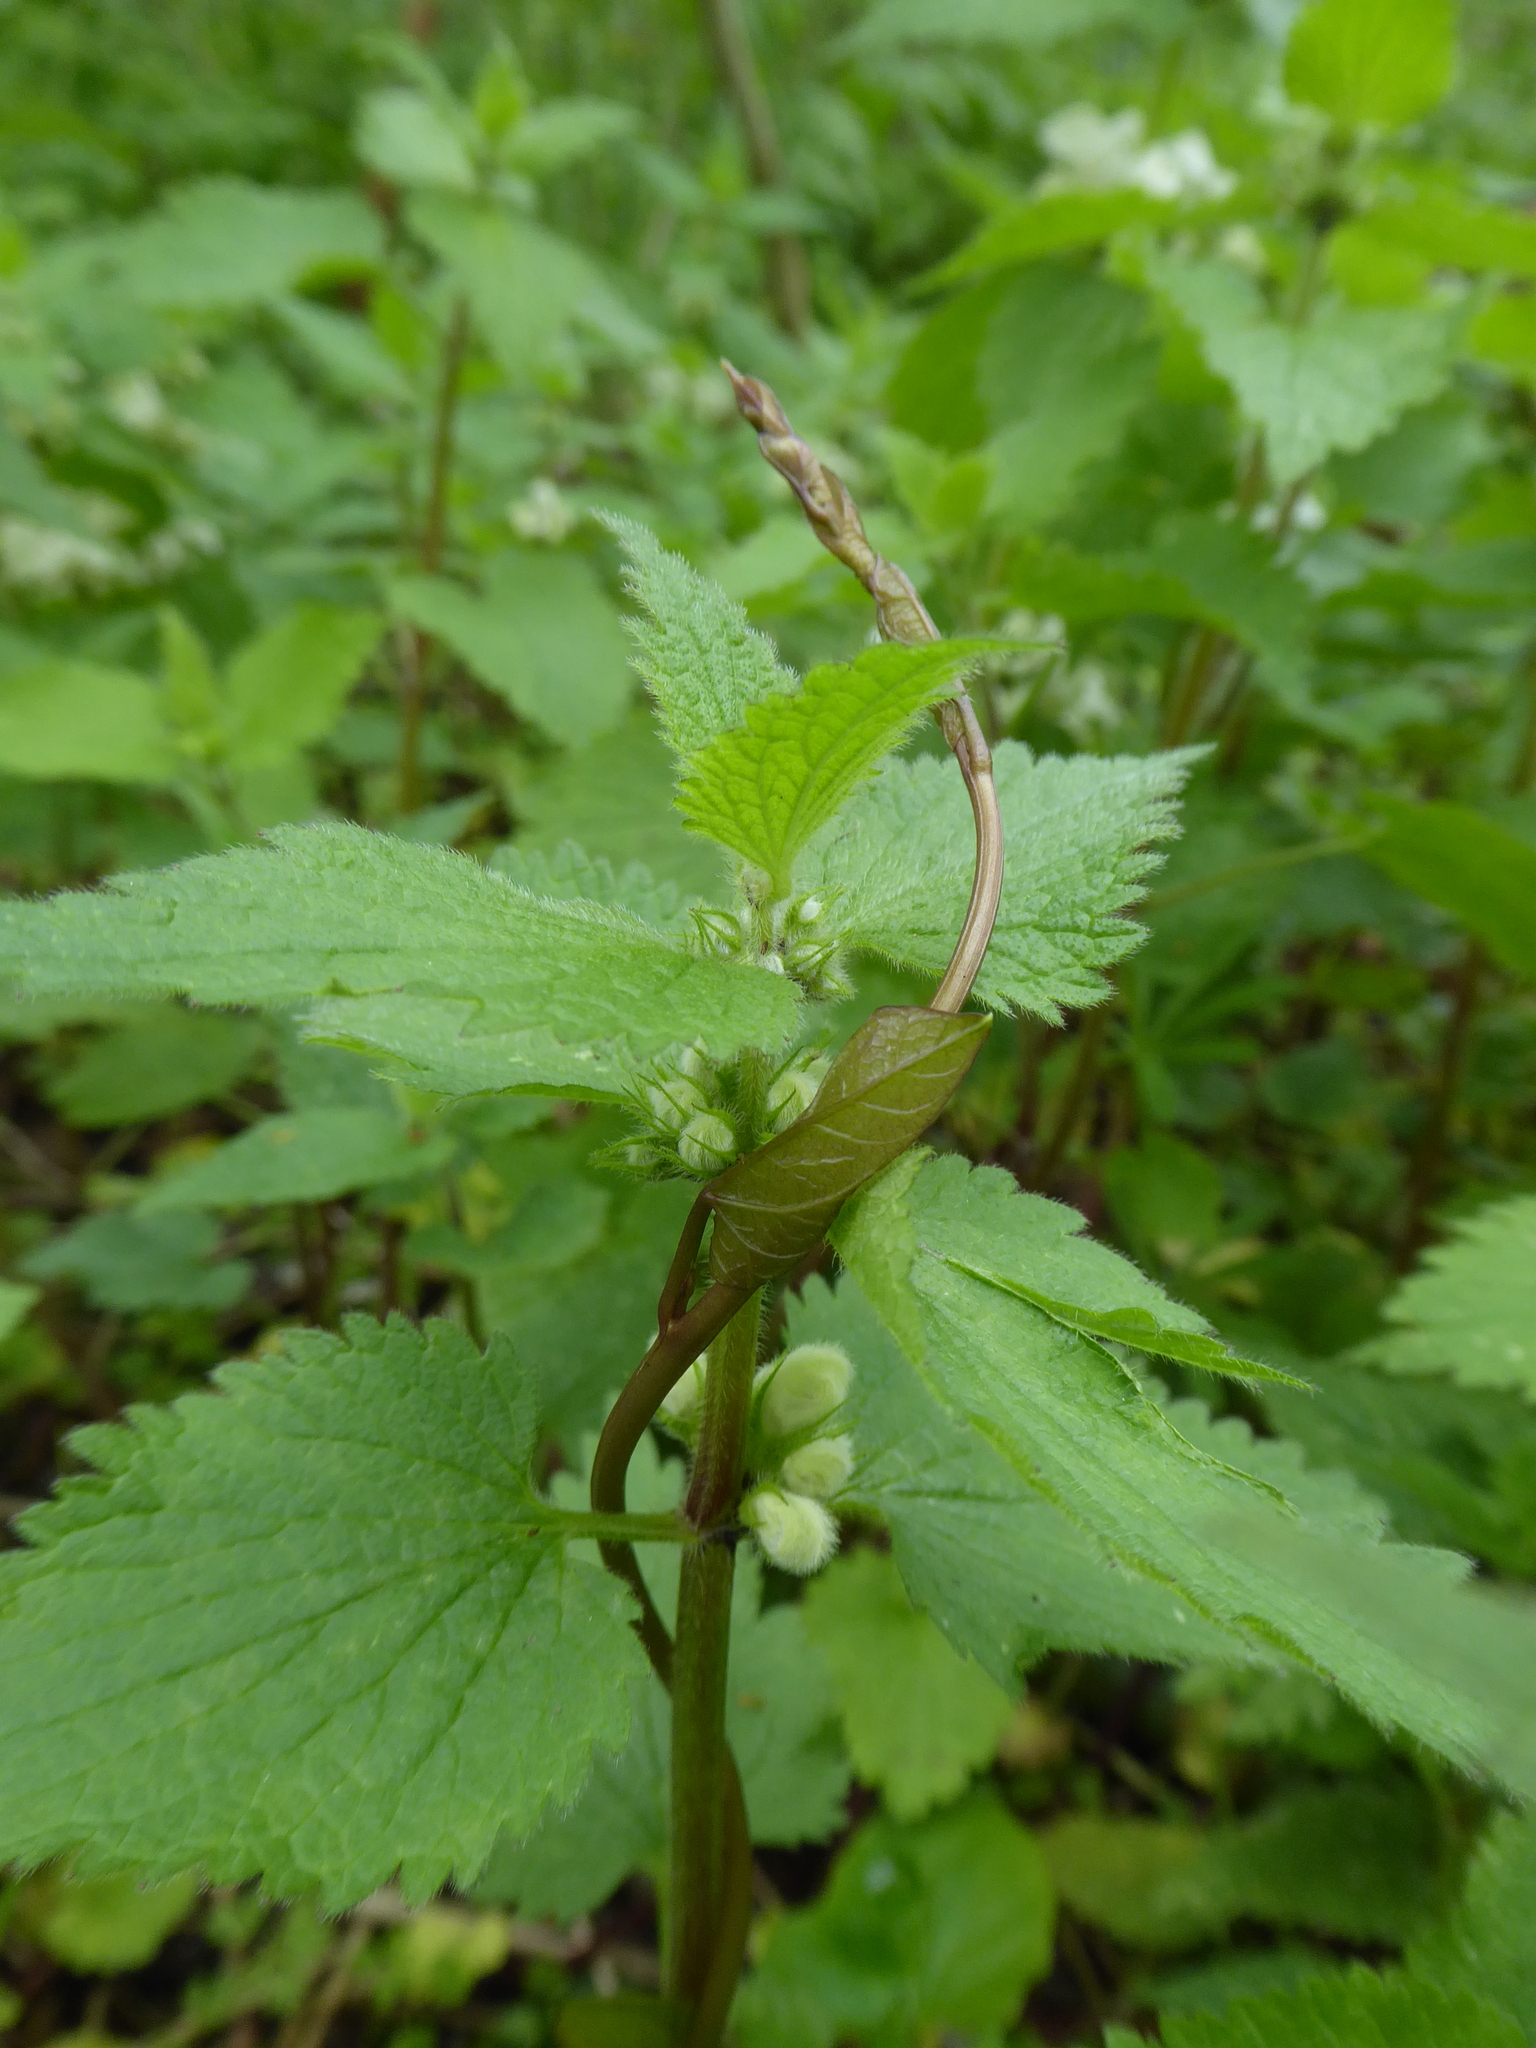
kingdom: Plantae
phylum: Tracheophyta
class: Magnoliopsida
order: Lamiales
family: Lamiaceae
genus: Lamium
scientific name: Lamium album
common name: White dead-nettle
